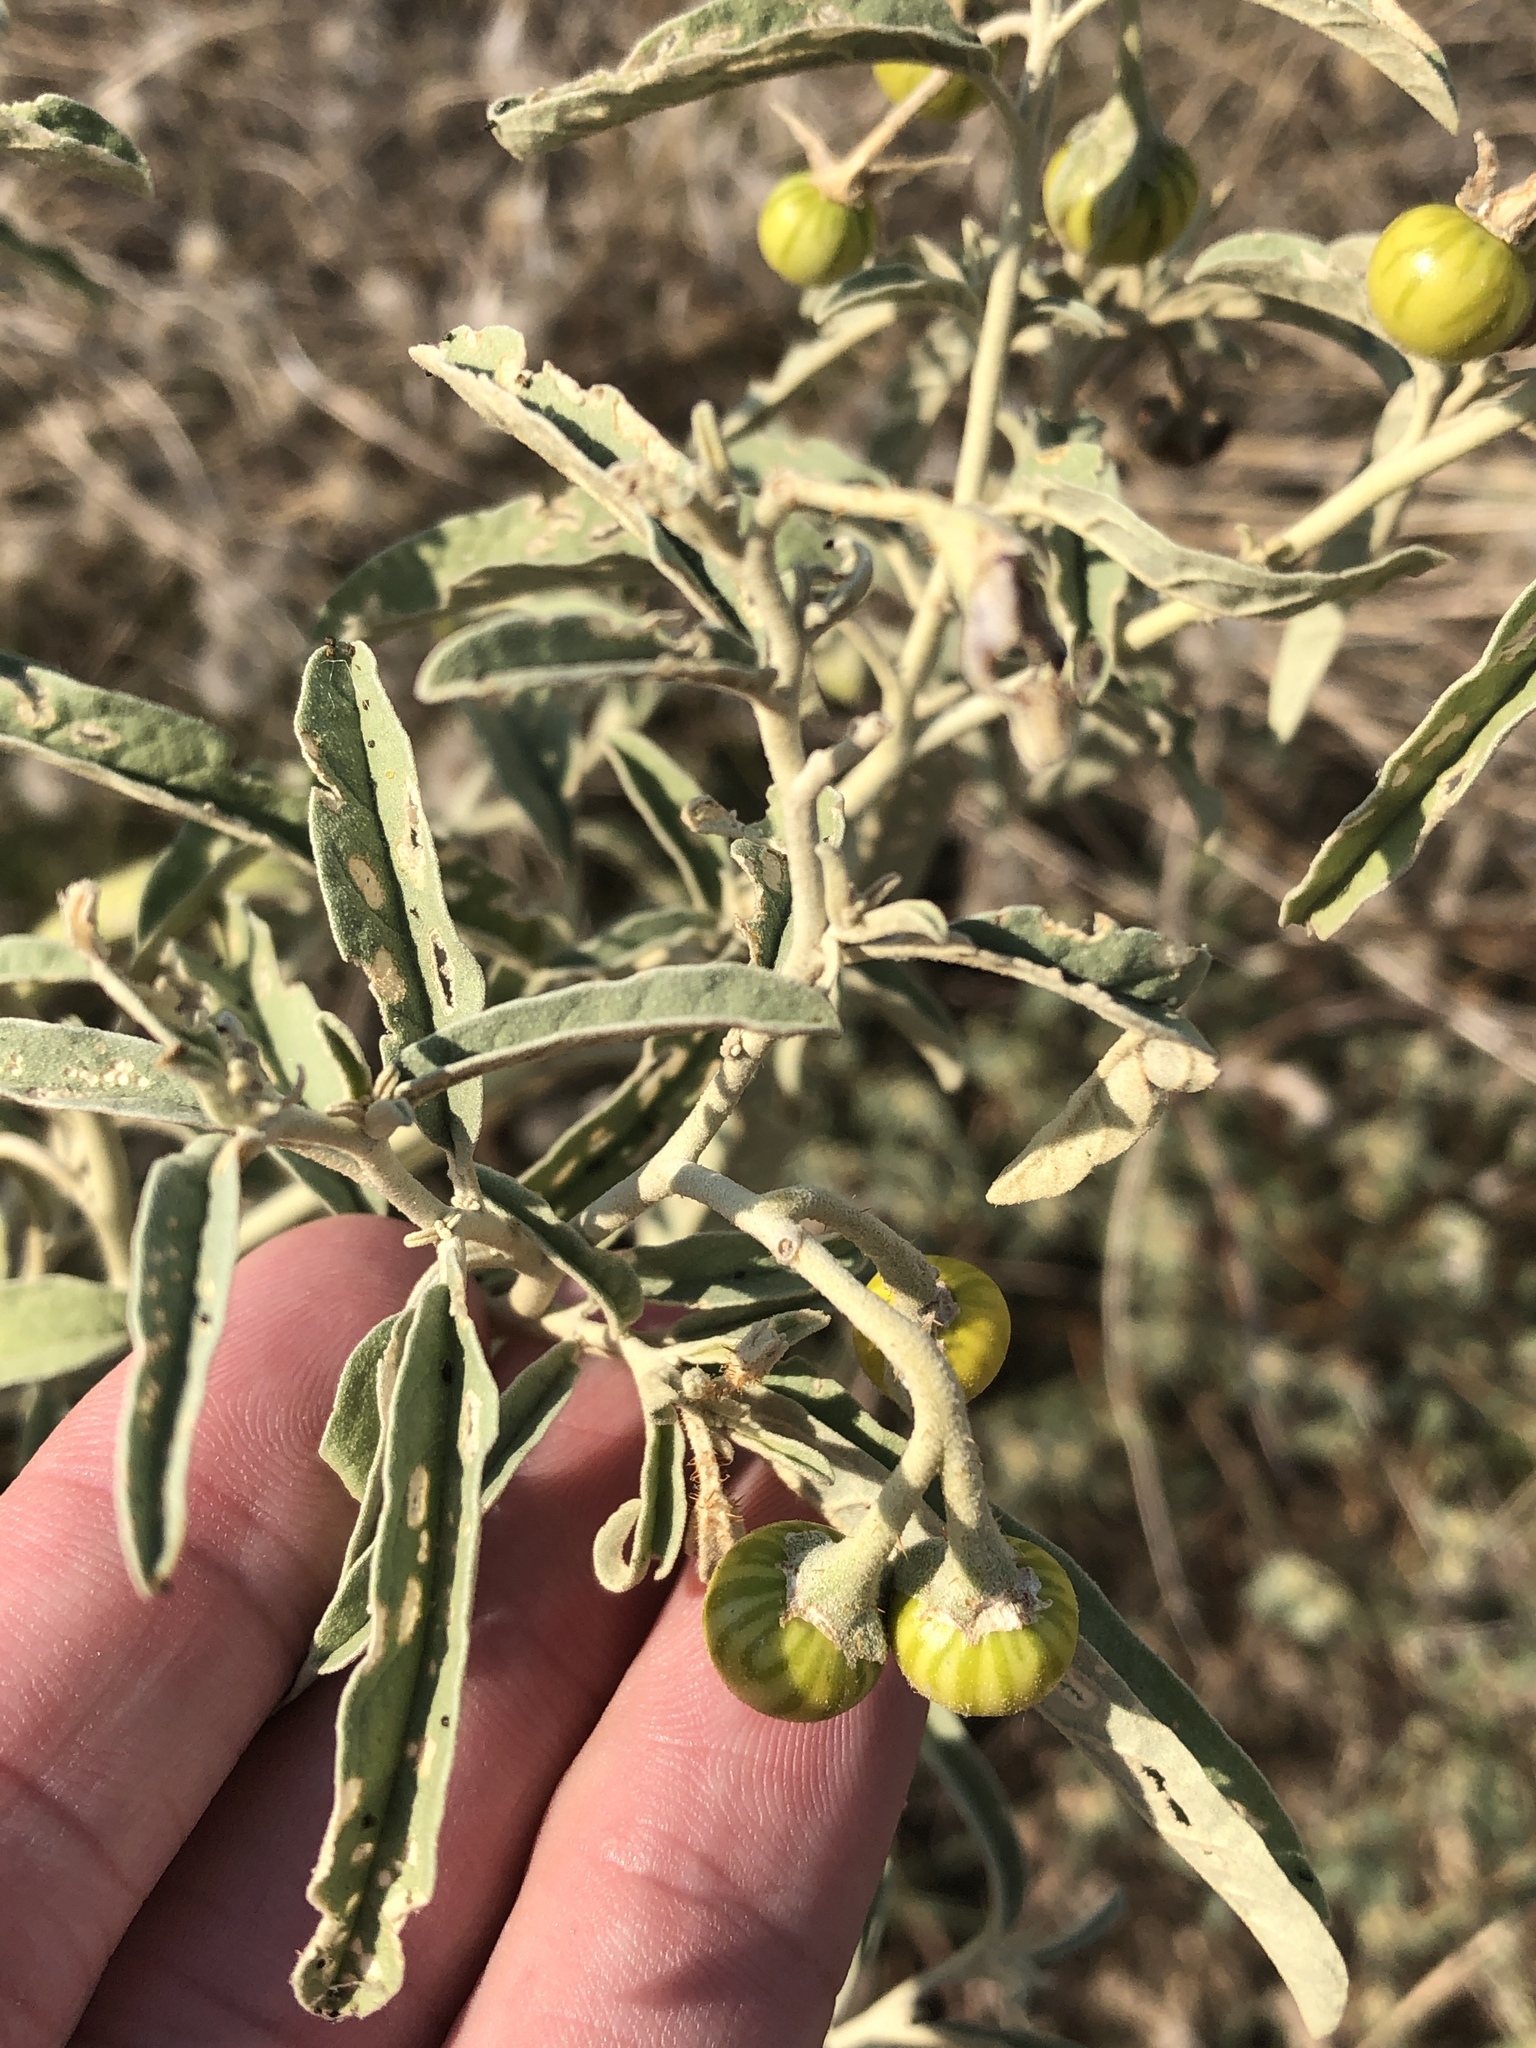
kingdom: Plantae
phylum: Tracheophyta
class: Magnoliopsida
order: Solanales
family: Solanaceae
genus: Solanum
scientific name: Solanum elaeagnifolium
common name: Silverleaf nightshade
